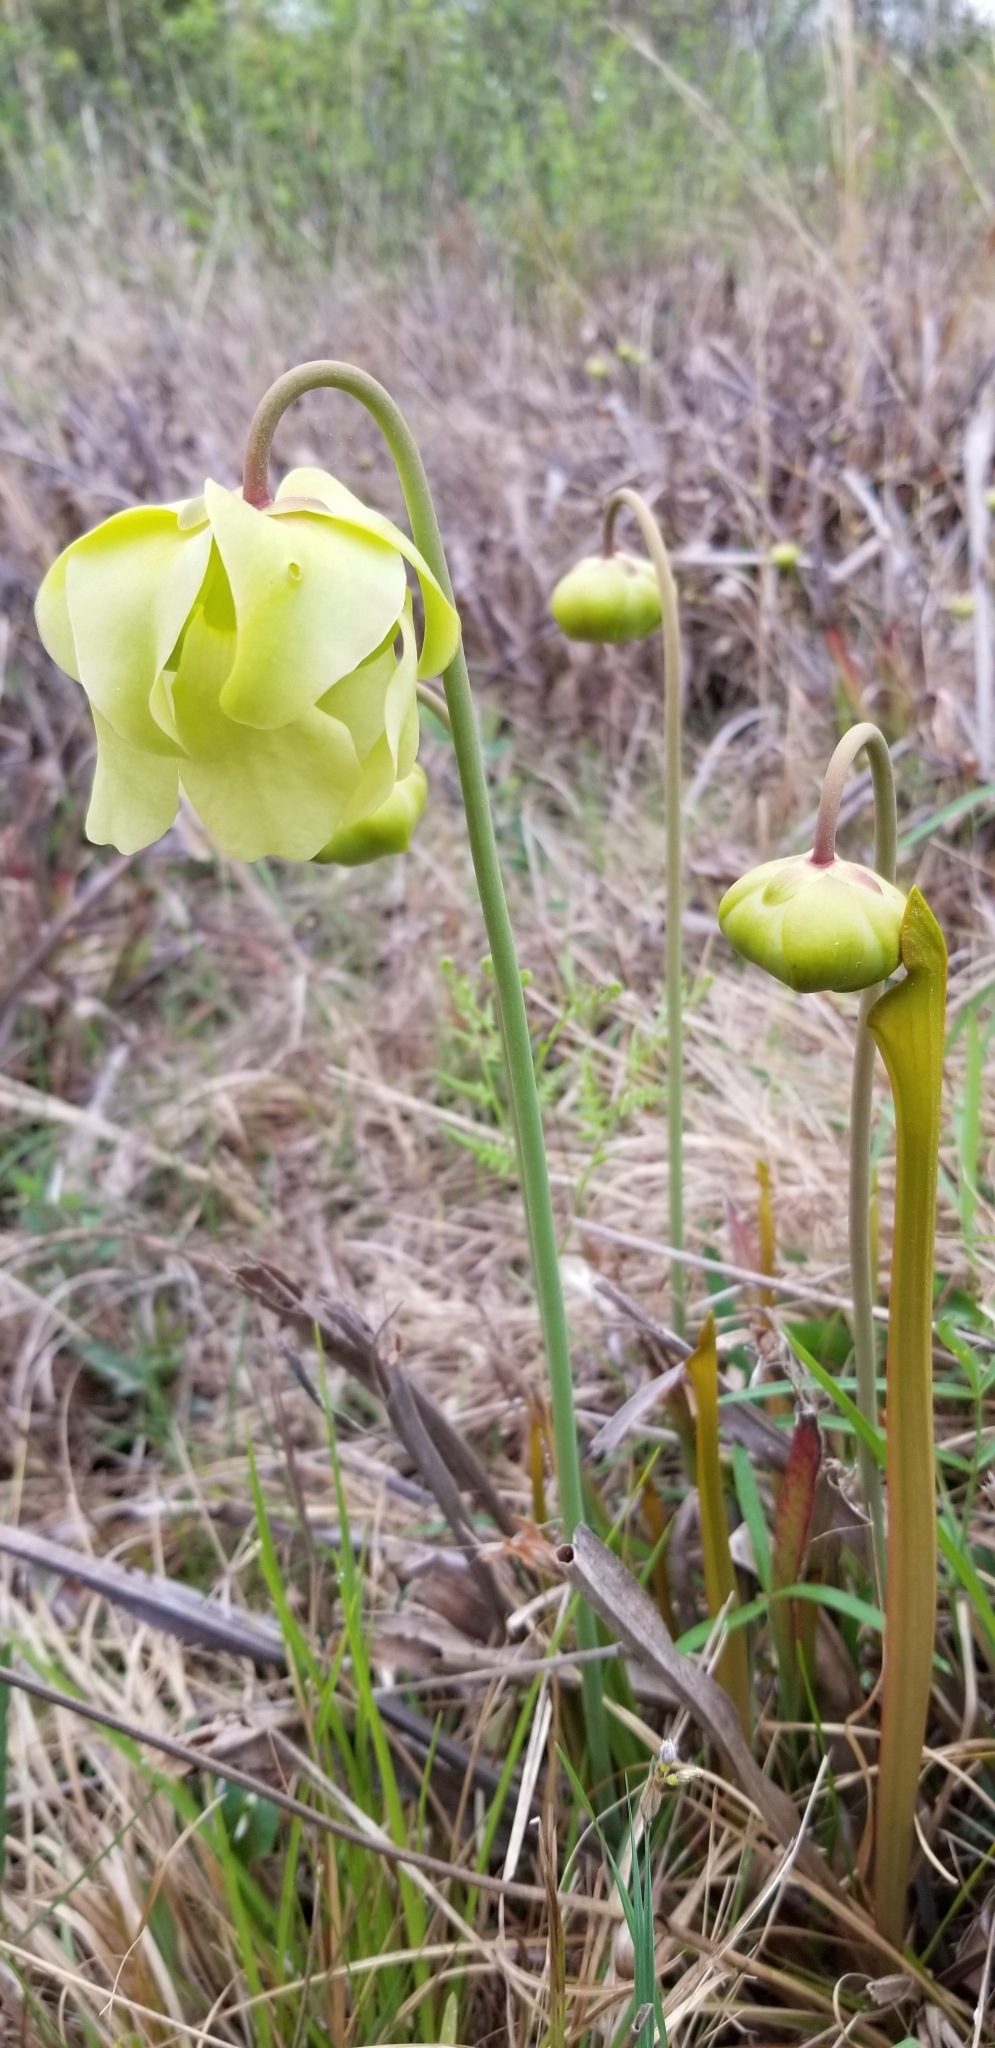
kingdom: Plantae
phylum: Tracheophyta
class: Magnoliopsida
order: Ericales
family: Sarraceniaceae
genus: Sarracenia
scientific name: Sarracenia alata
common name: Yellow trumpets
